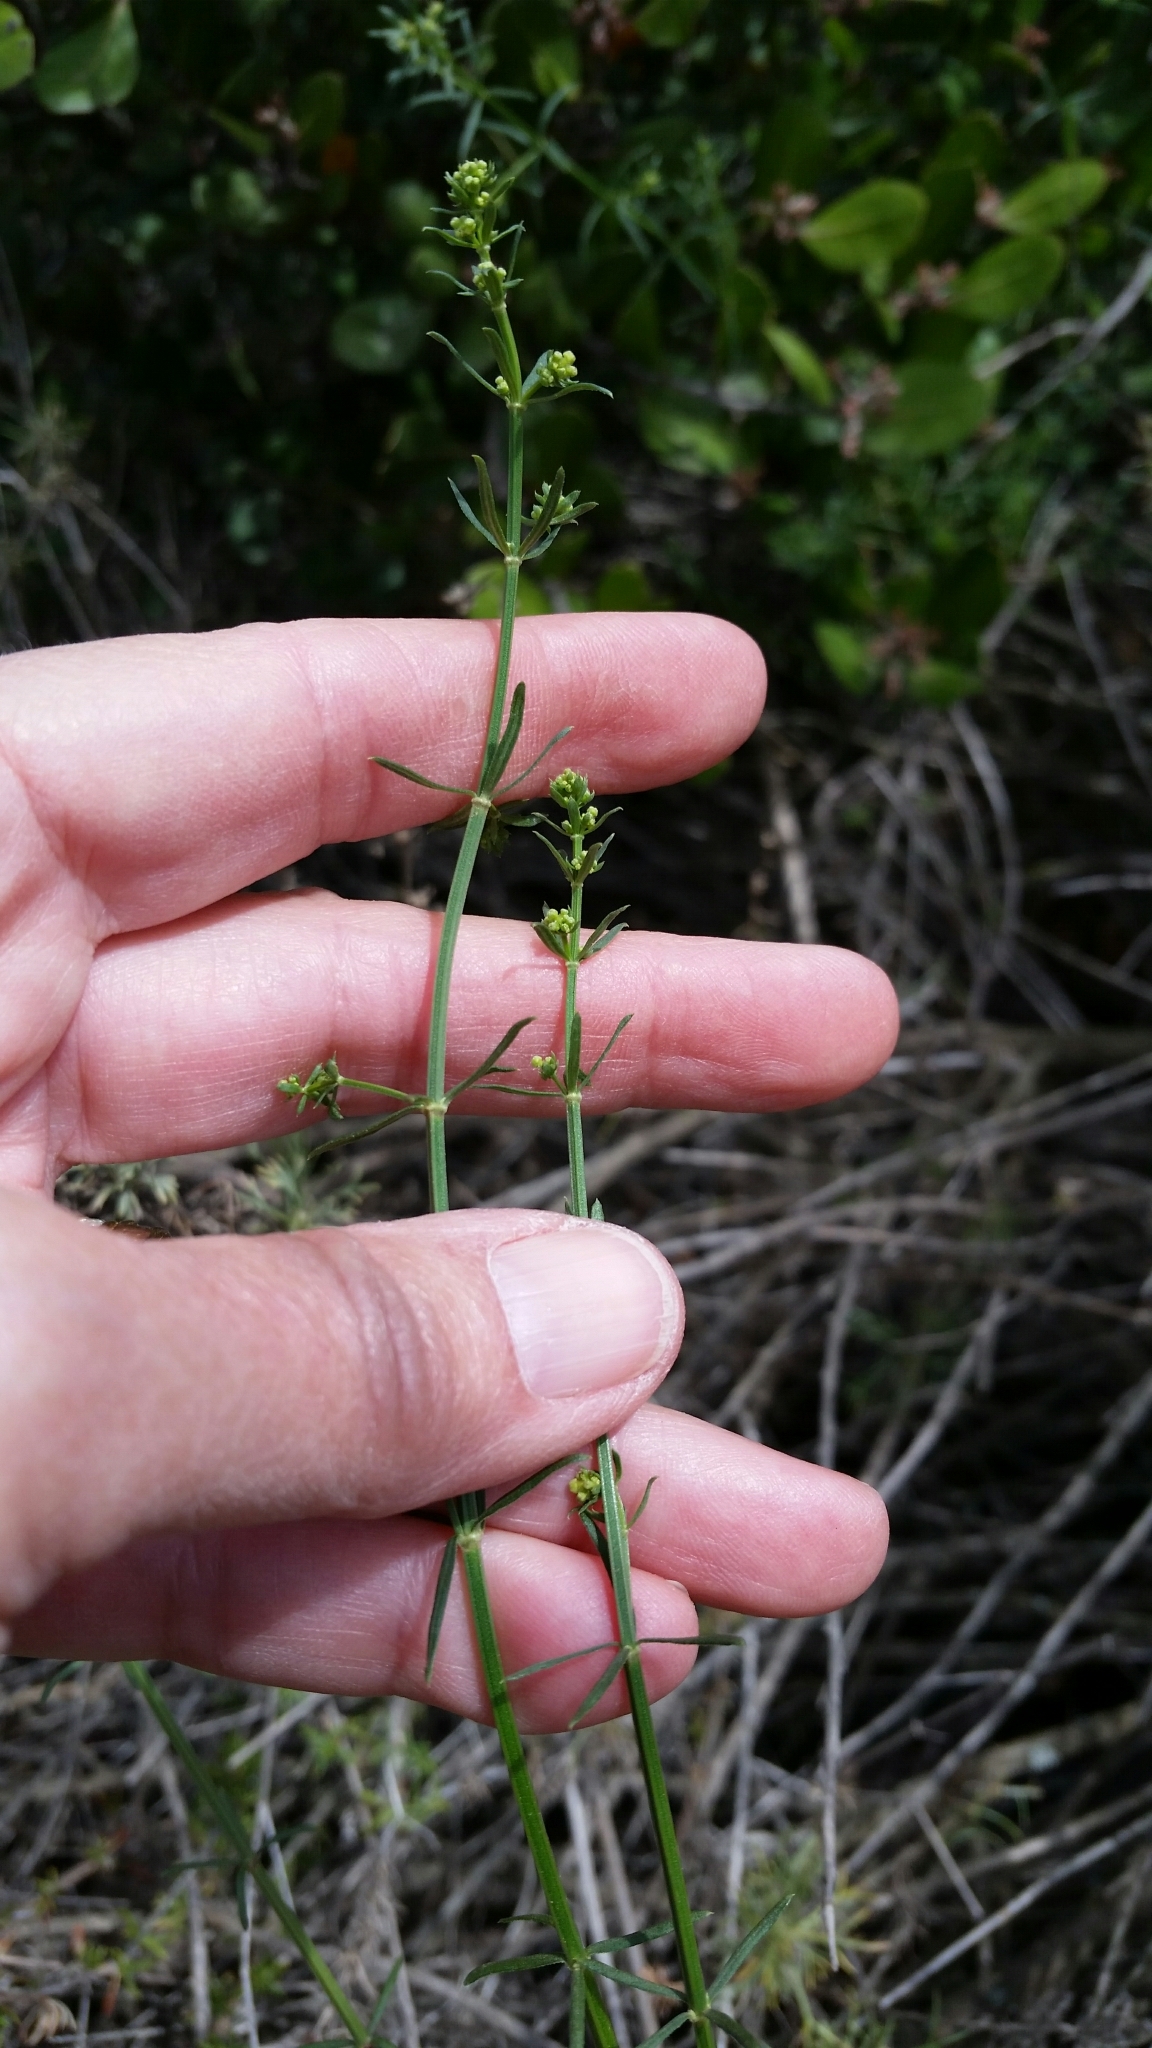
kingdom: Plantae
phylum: Tracheophyta
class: Magnoliopsida
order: Gentianales
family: Rubiaceae
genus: Galium
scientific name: Galium angustifolium
